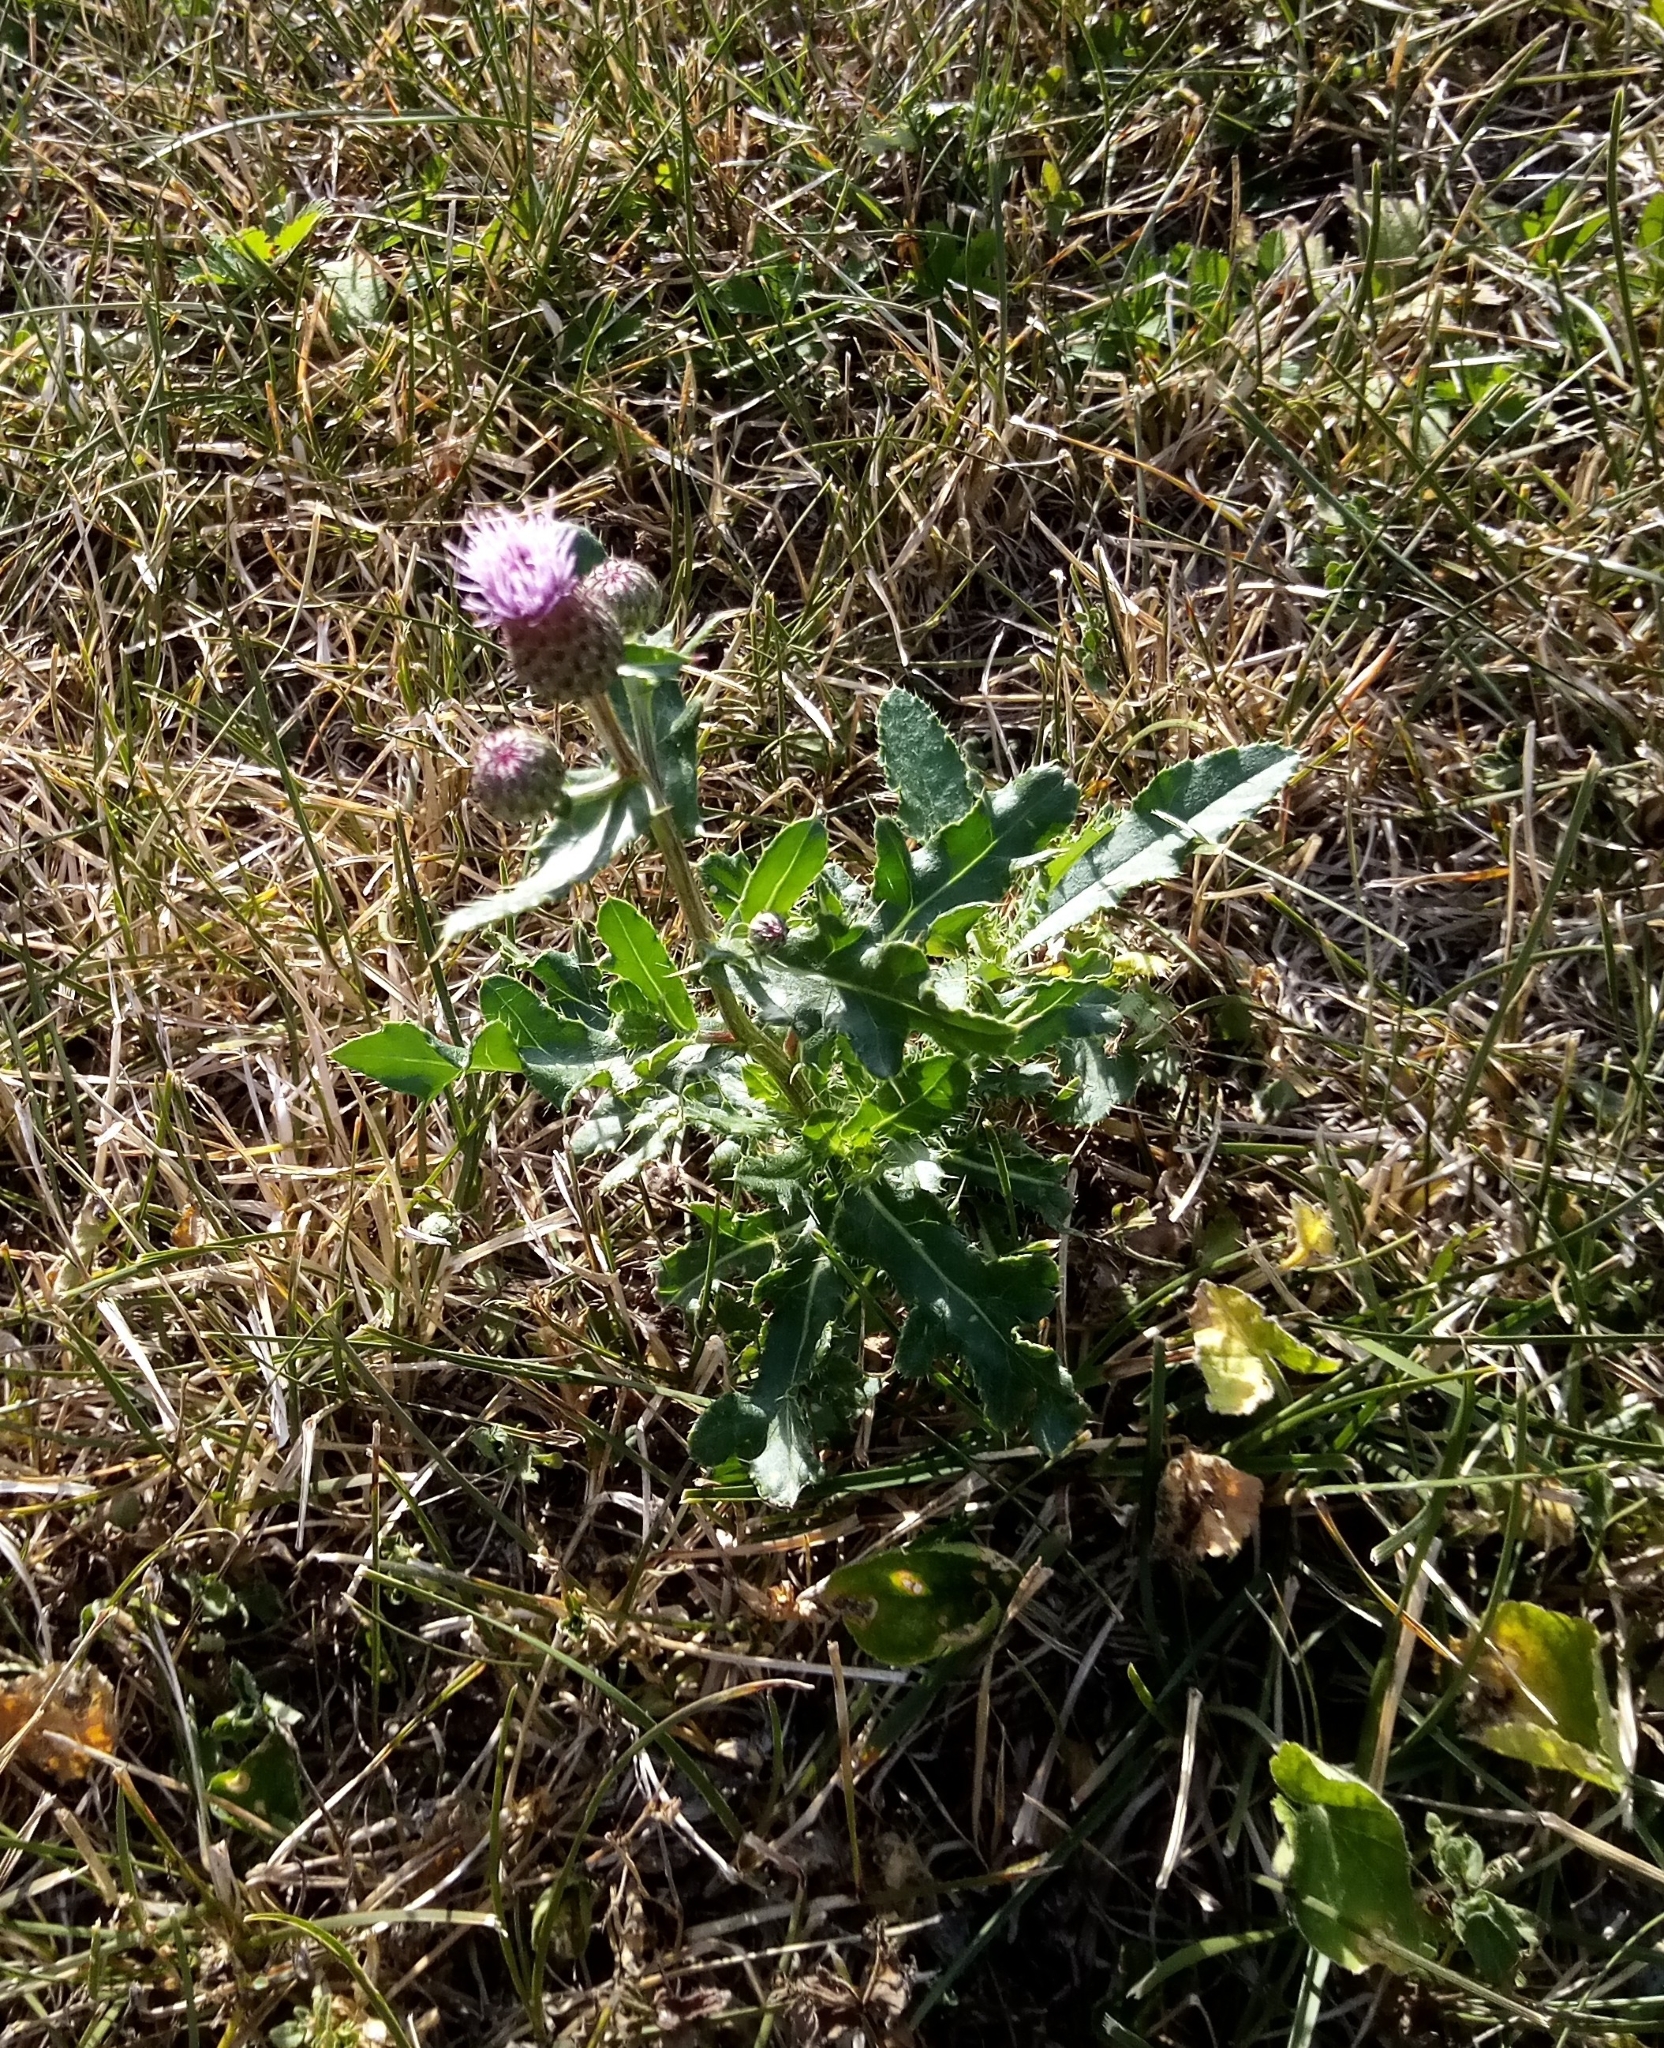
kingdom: Plantae
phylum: Tracheophyta
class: Magnoliopsida
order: Asterales
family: Asteraceae
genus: Cirsium
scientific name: Cirsium arvense
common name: Creeping thistle
